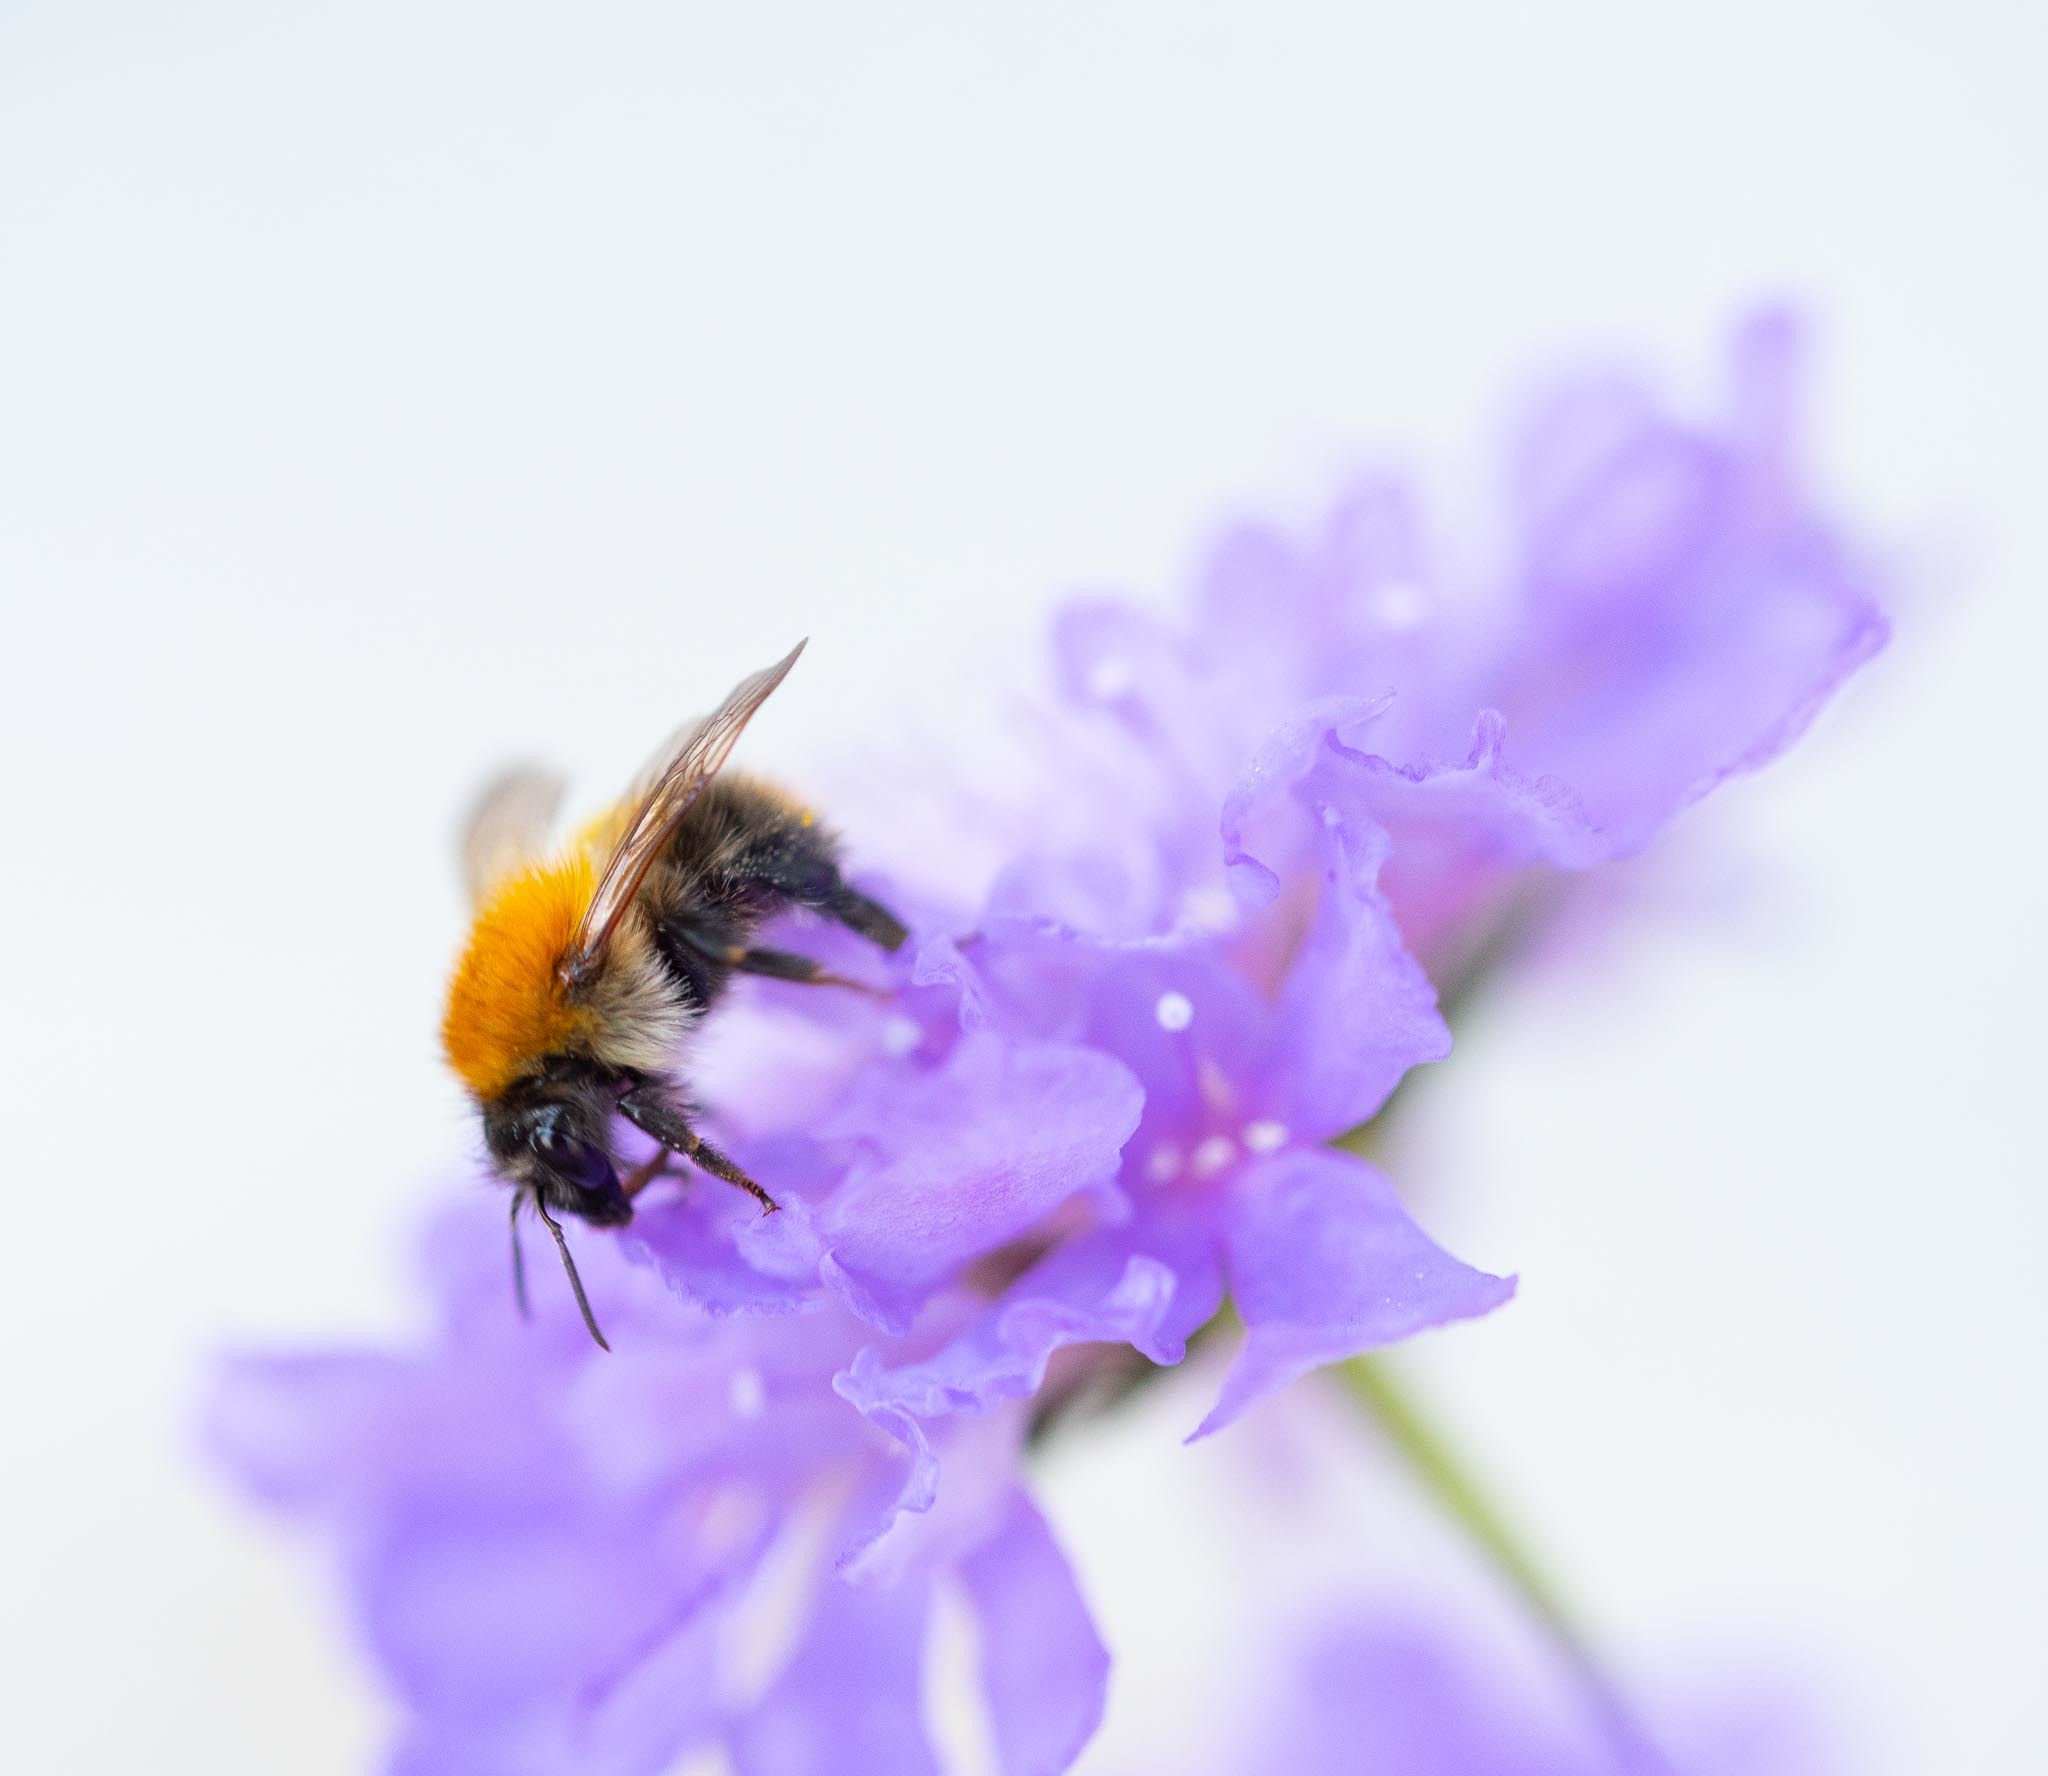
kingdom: Animalia
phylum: Arthropoda
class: Insecta
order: Hymenoptera
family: Apidae
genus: Bombus
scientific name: Bombus pascuorum
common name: Common carder bee
